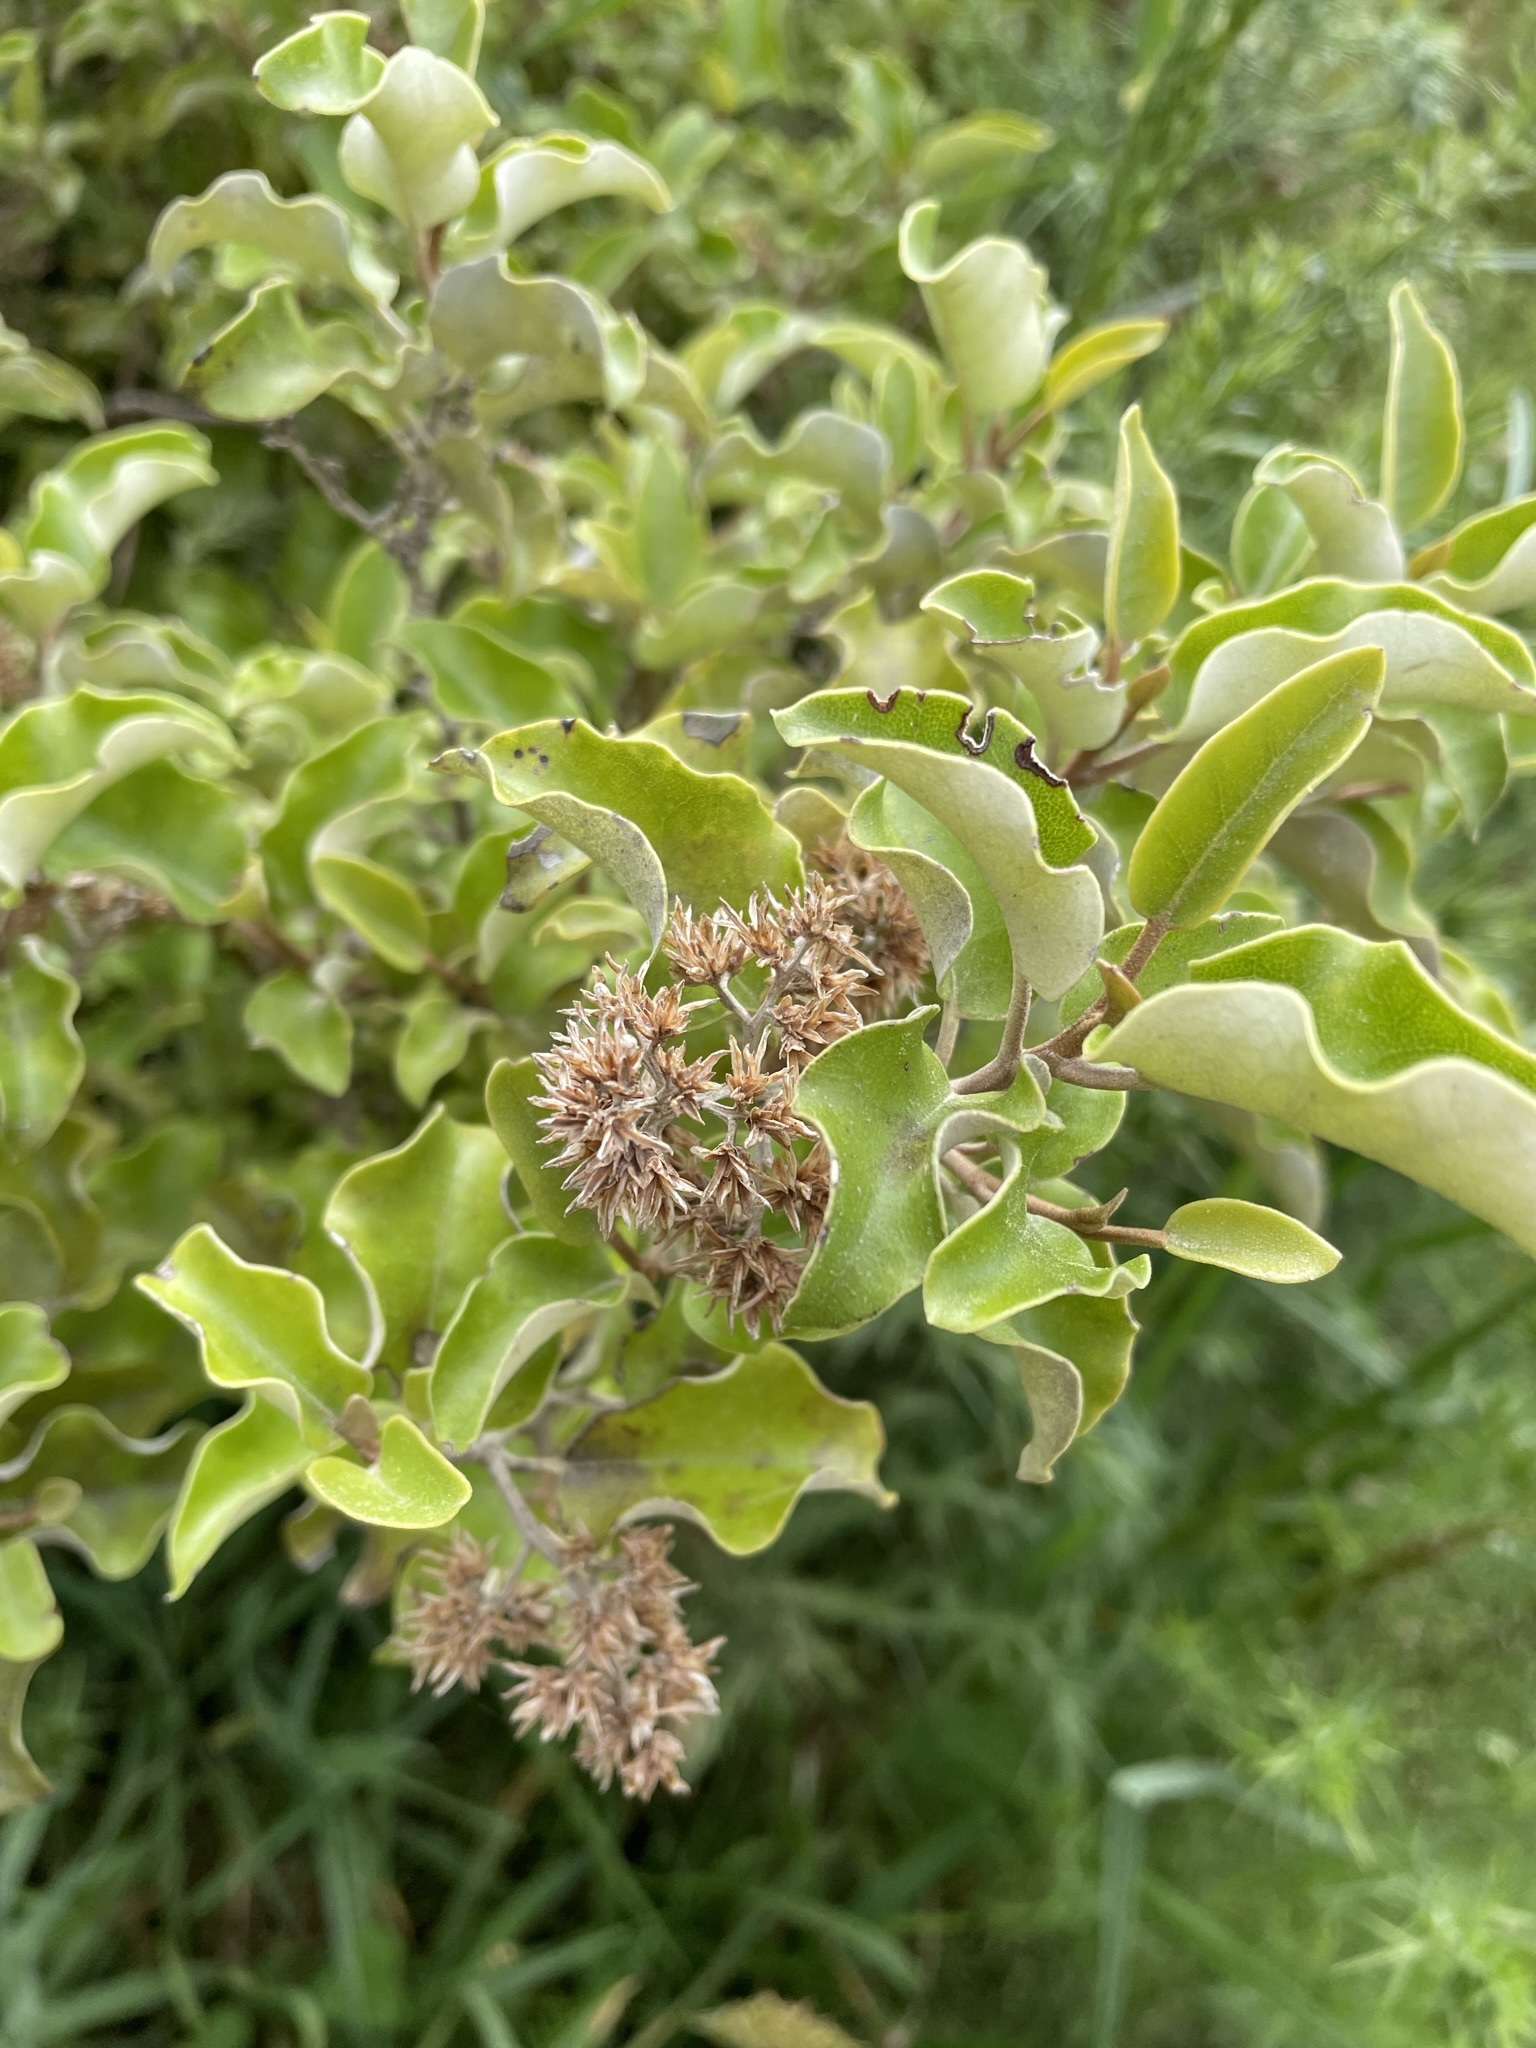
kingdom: Plantae
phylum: Tracheophyta
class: Magnoliopsida
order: Asterales
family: Asteraceae
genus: Olearia
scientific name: Olearia paniculata
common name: Akiraho
